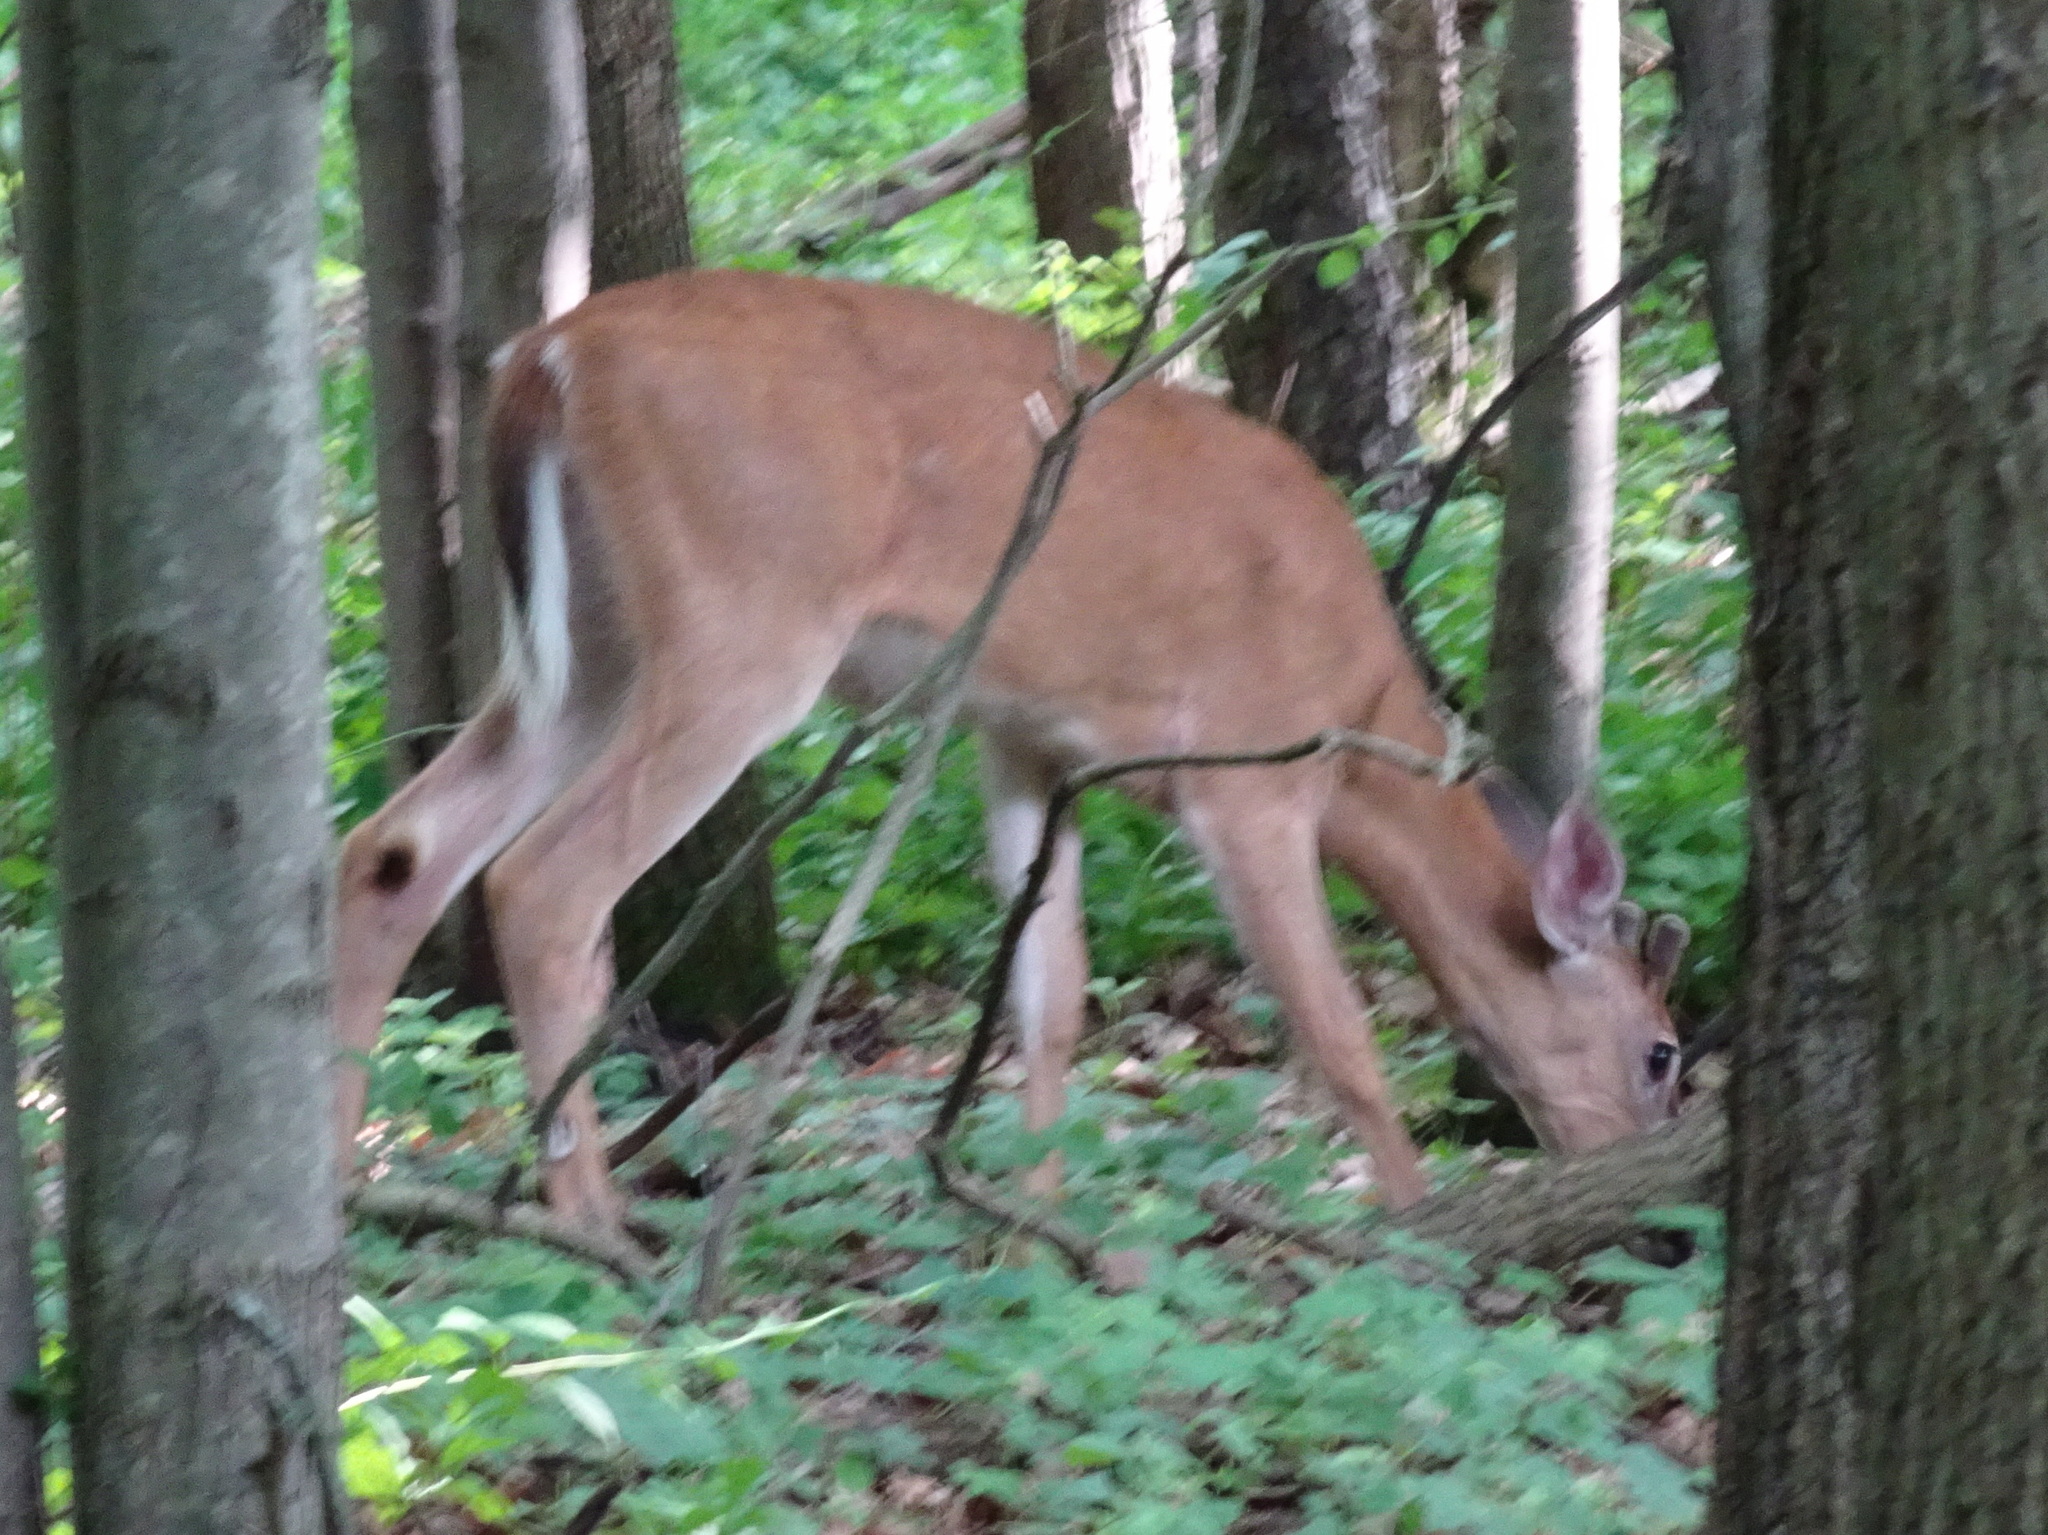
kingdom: Animalia
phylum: Chordata
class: Mammalia
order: Artiodactyla
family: Cervidae
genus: Odocoileus
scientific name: Odocoileus virginianus
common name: White-tailed deer
